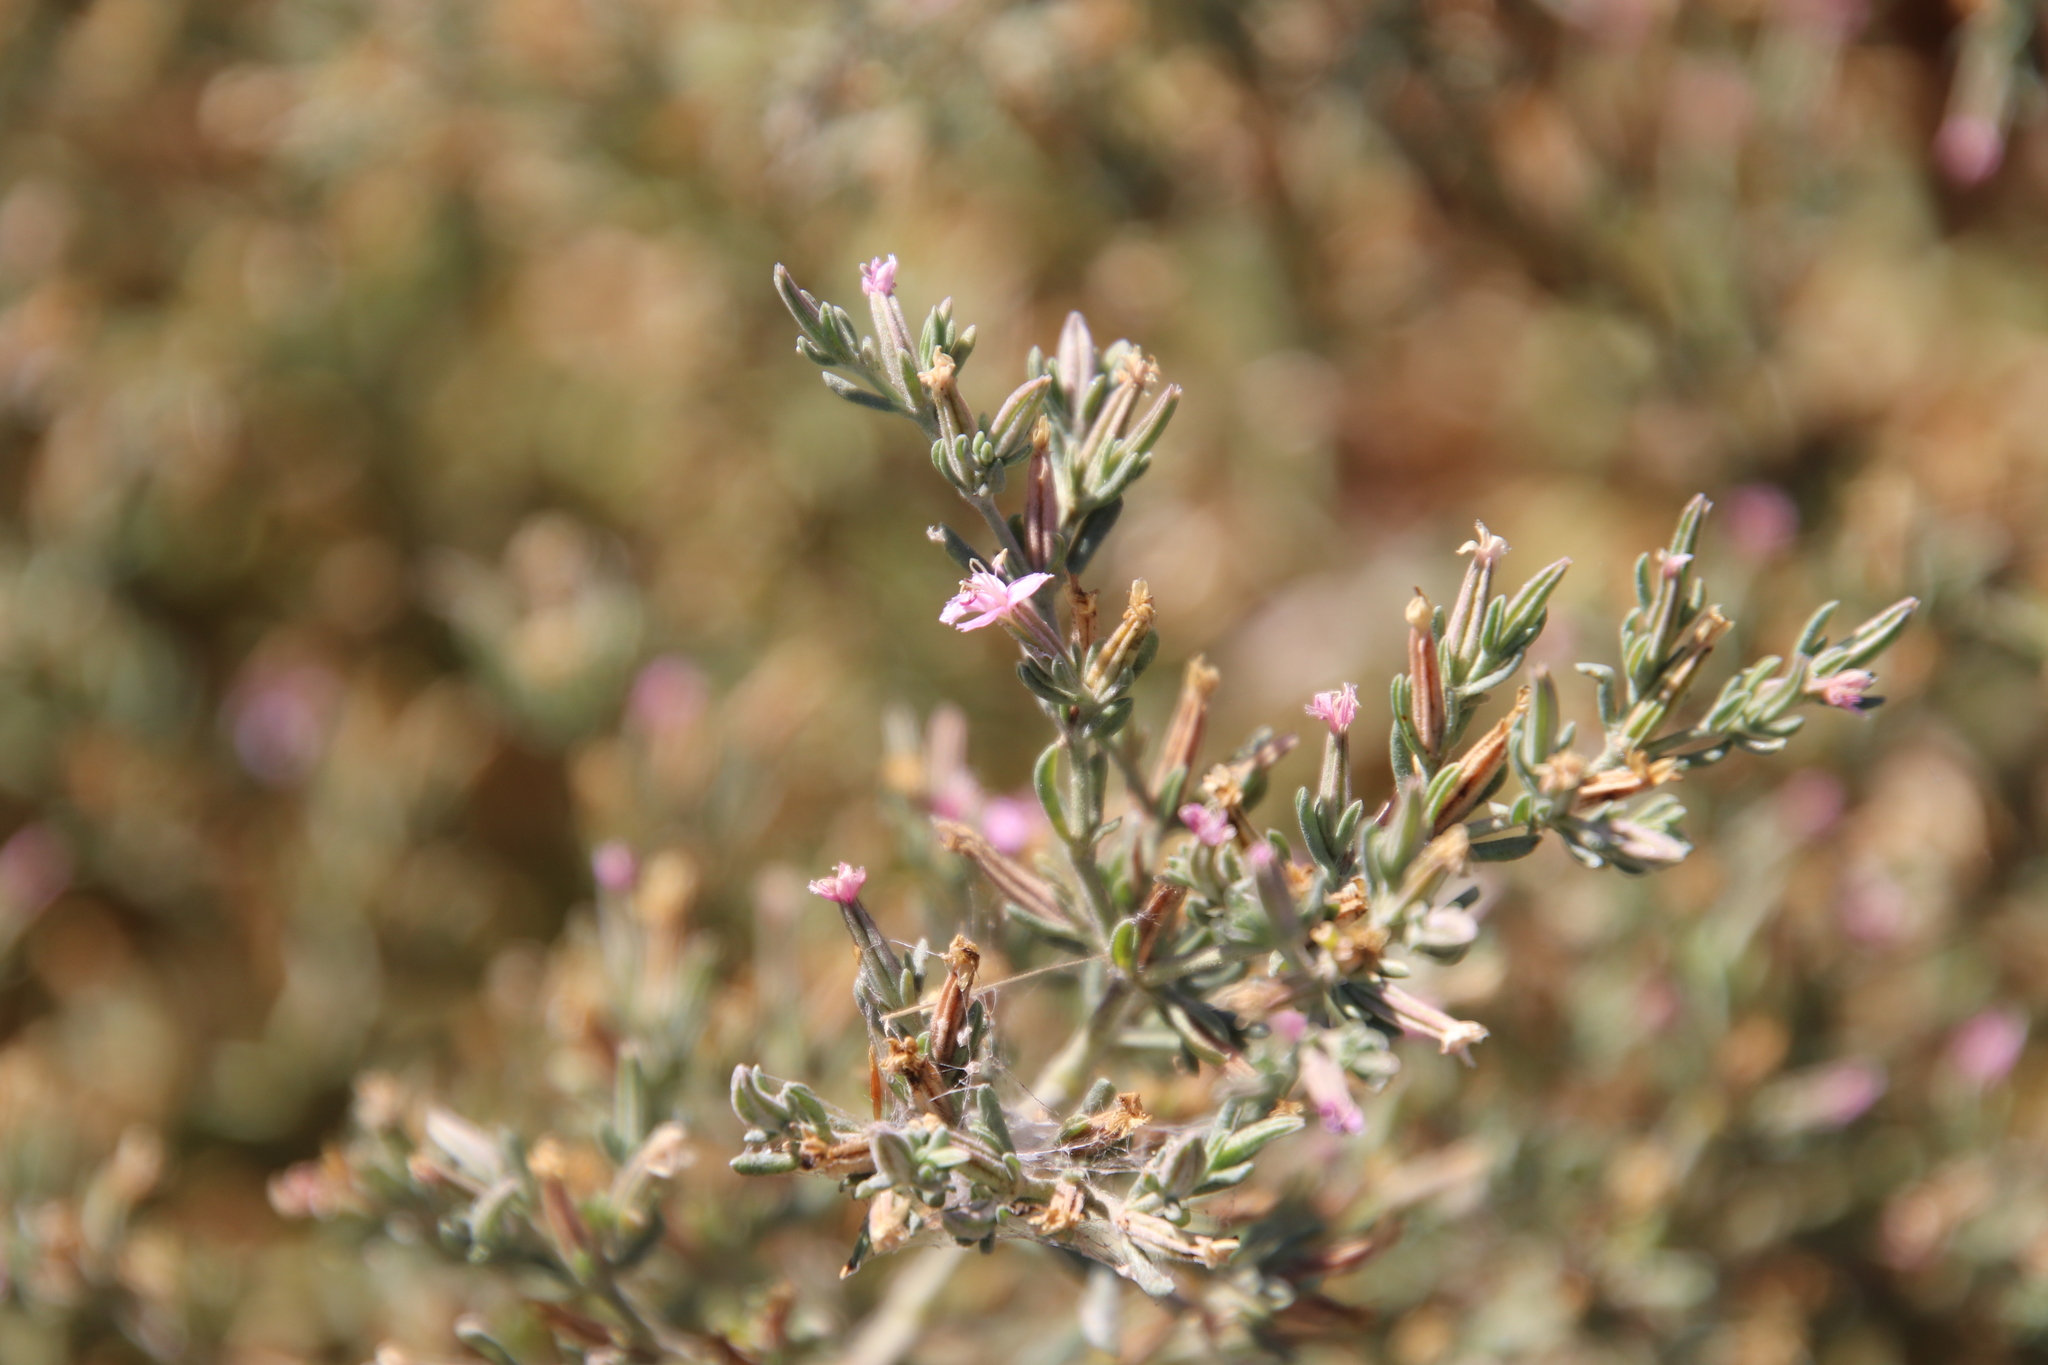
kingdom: Plantae
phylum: Tracheophyta
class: Magnoliopsida
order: Caryophyllales
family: Frankeniaceae
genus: Frankenia
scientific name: Frankenia salina
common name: Alkali seaheath
